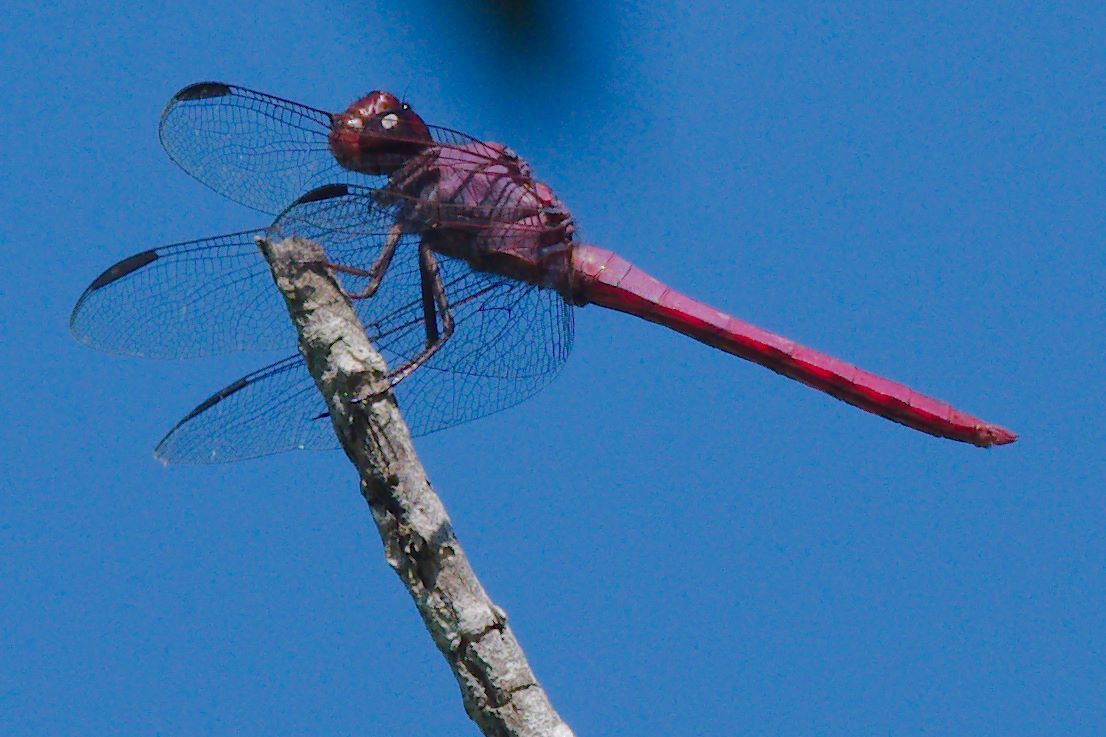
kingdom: Animalia
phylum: Arthropoda
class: Insecta
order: Odonata
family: Libellulidae
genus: Orthemis
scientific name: Orthemis ferruginea
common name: Roseate skimmer
